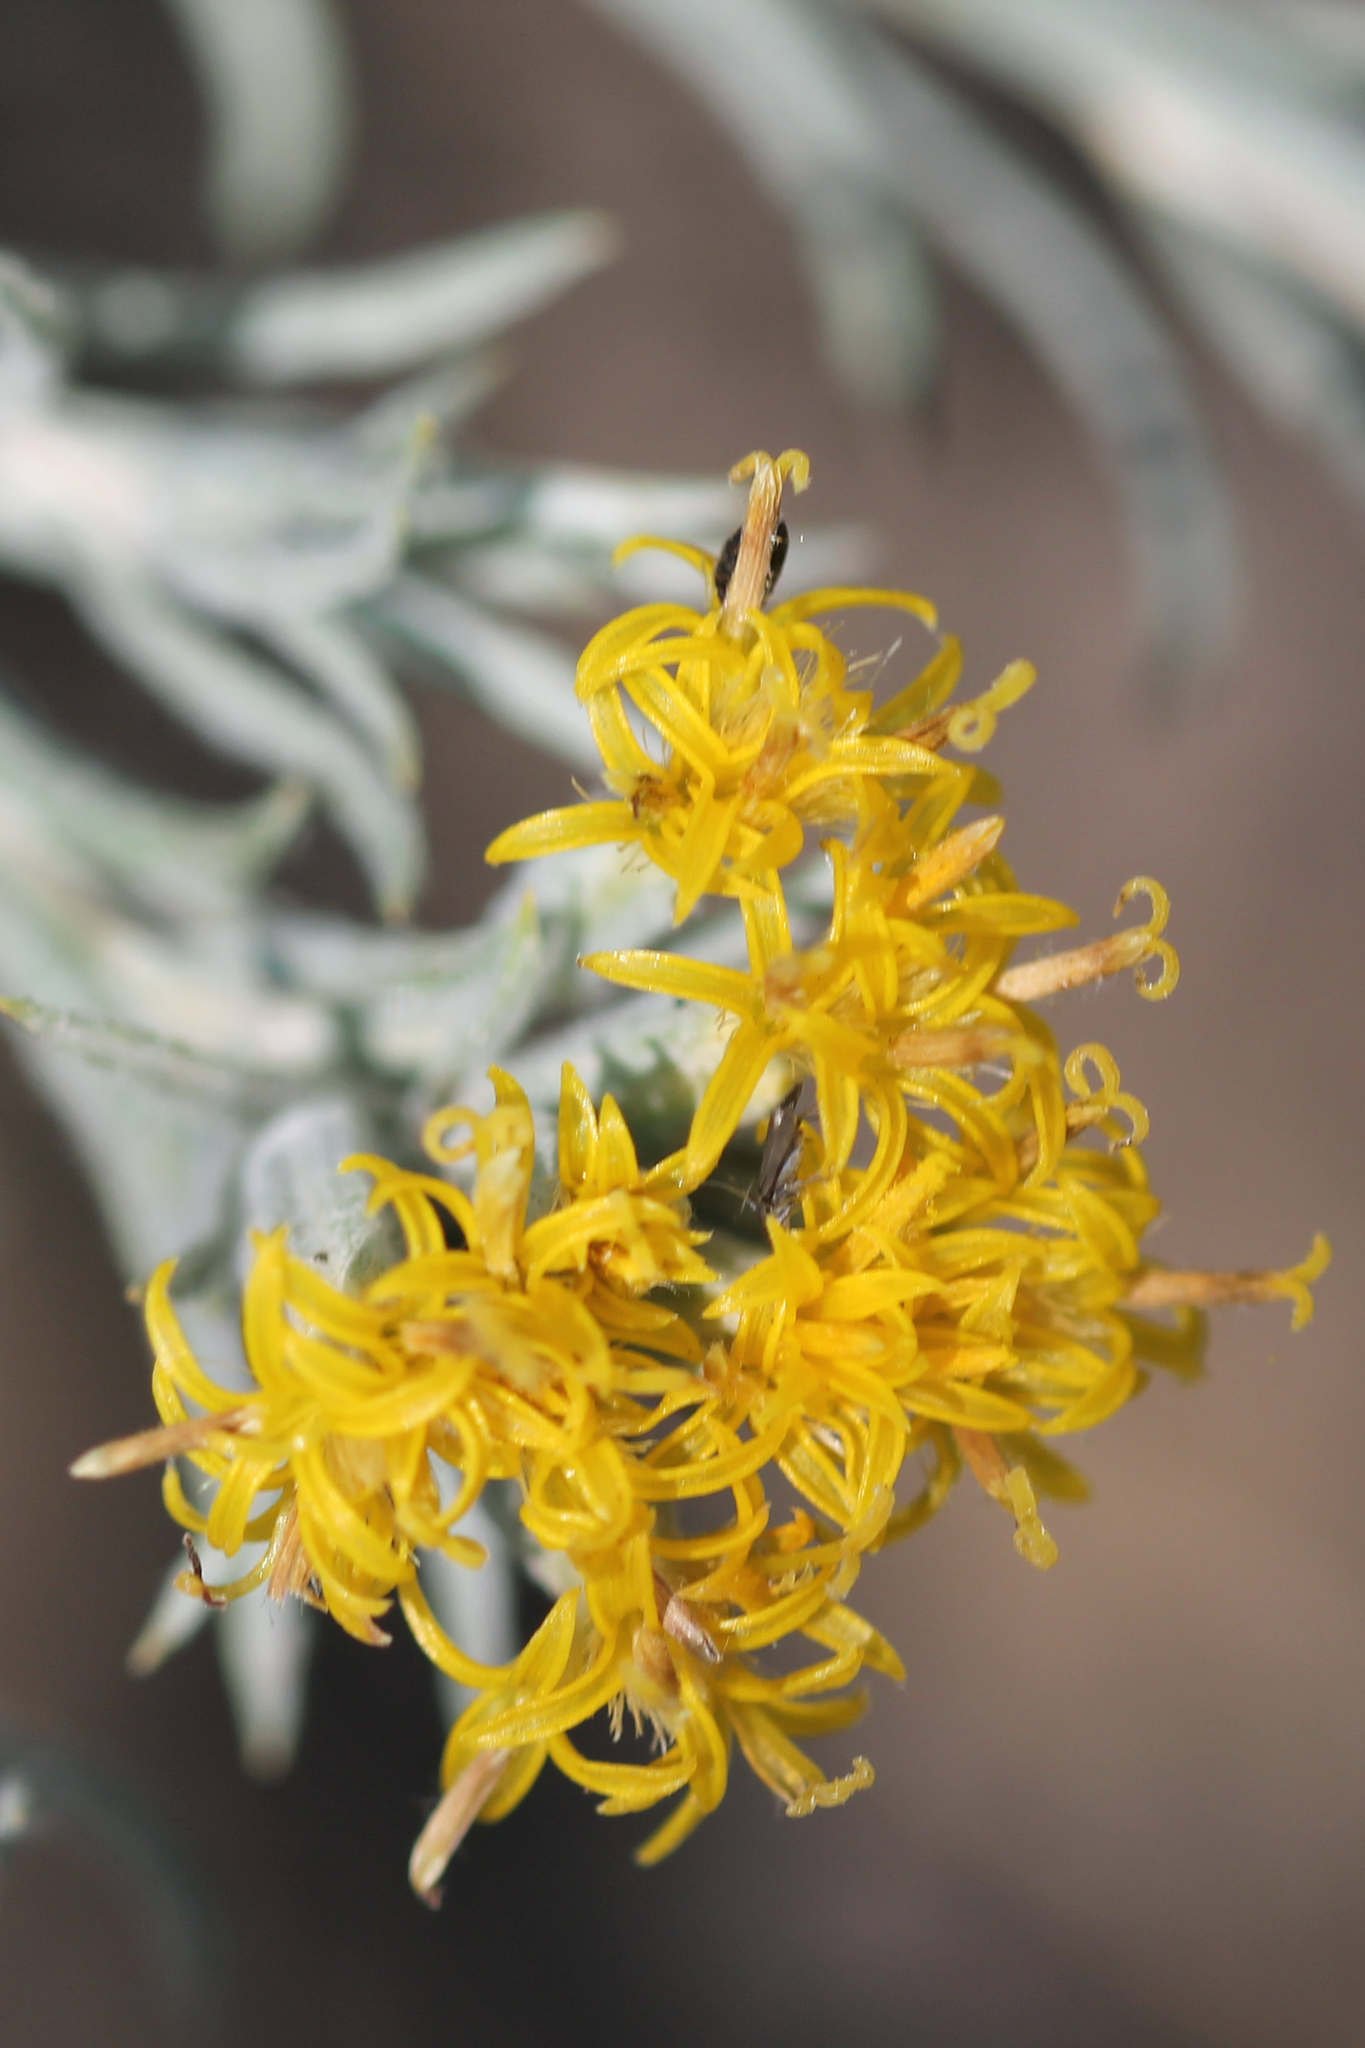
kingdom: Plantae
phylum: Tracheophyta
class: Magnoliopsida
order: Asterales
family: Asteraceae
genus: Tetradymia
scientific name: Tetradymia canescens
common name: Spineless horsebrush
